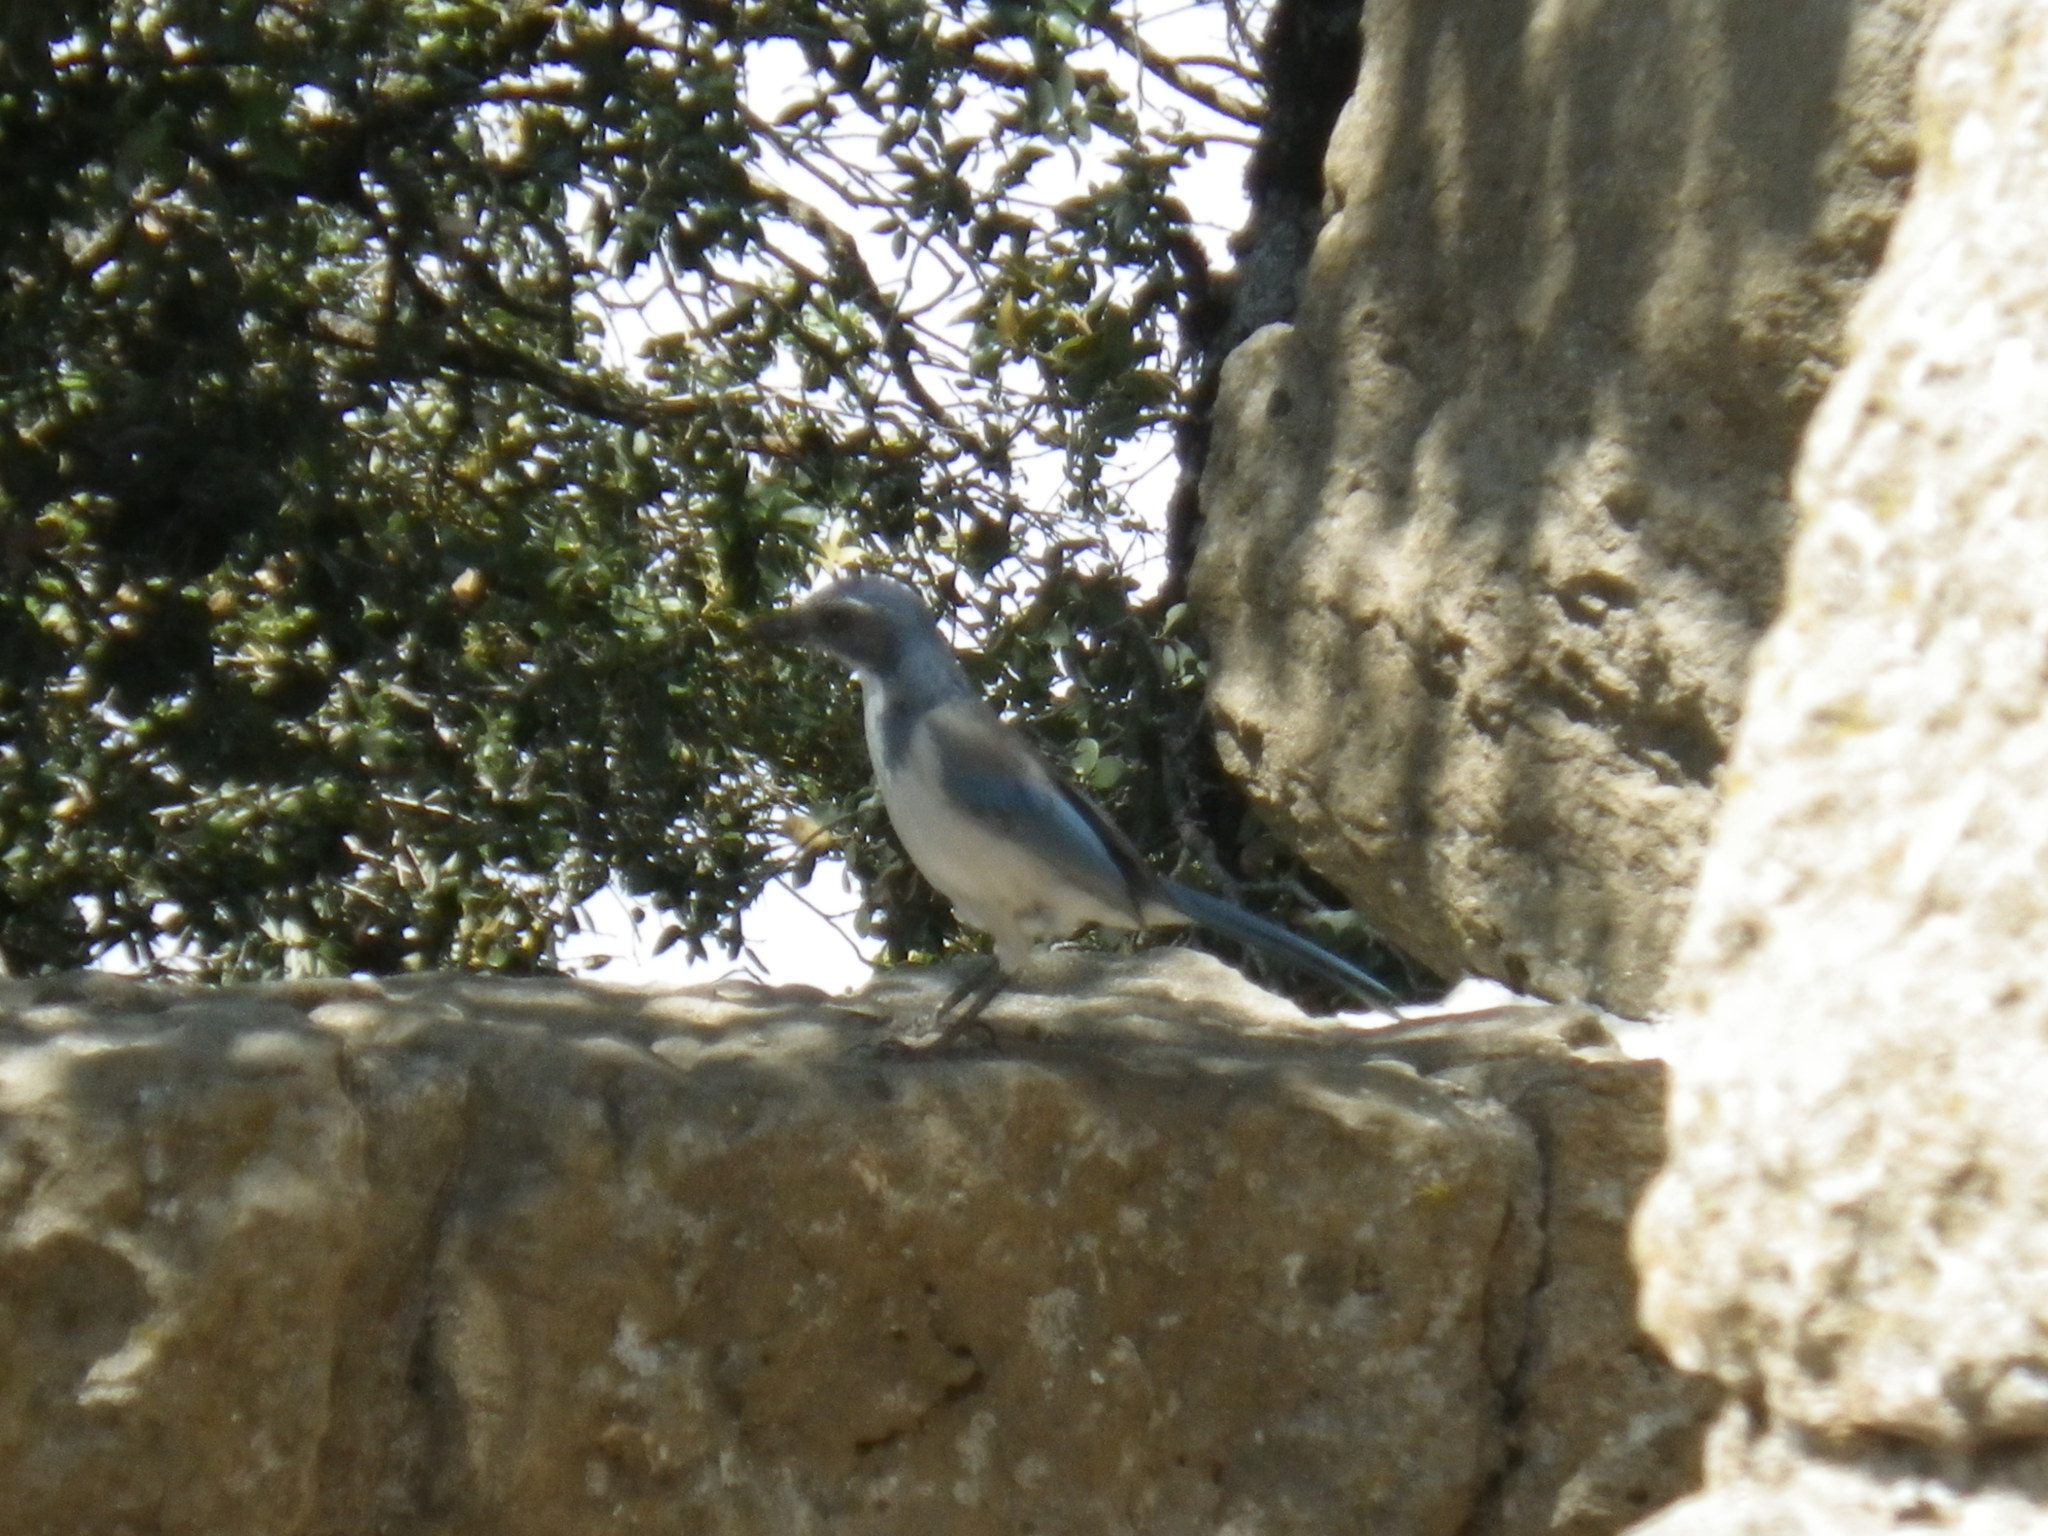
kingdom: Animalia
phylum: Chordata
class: Aves
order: Passeriformes
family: Corvidae
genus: Aphelocoma
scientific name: Aphelocoma californica
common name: California scrub-jay
